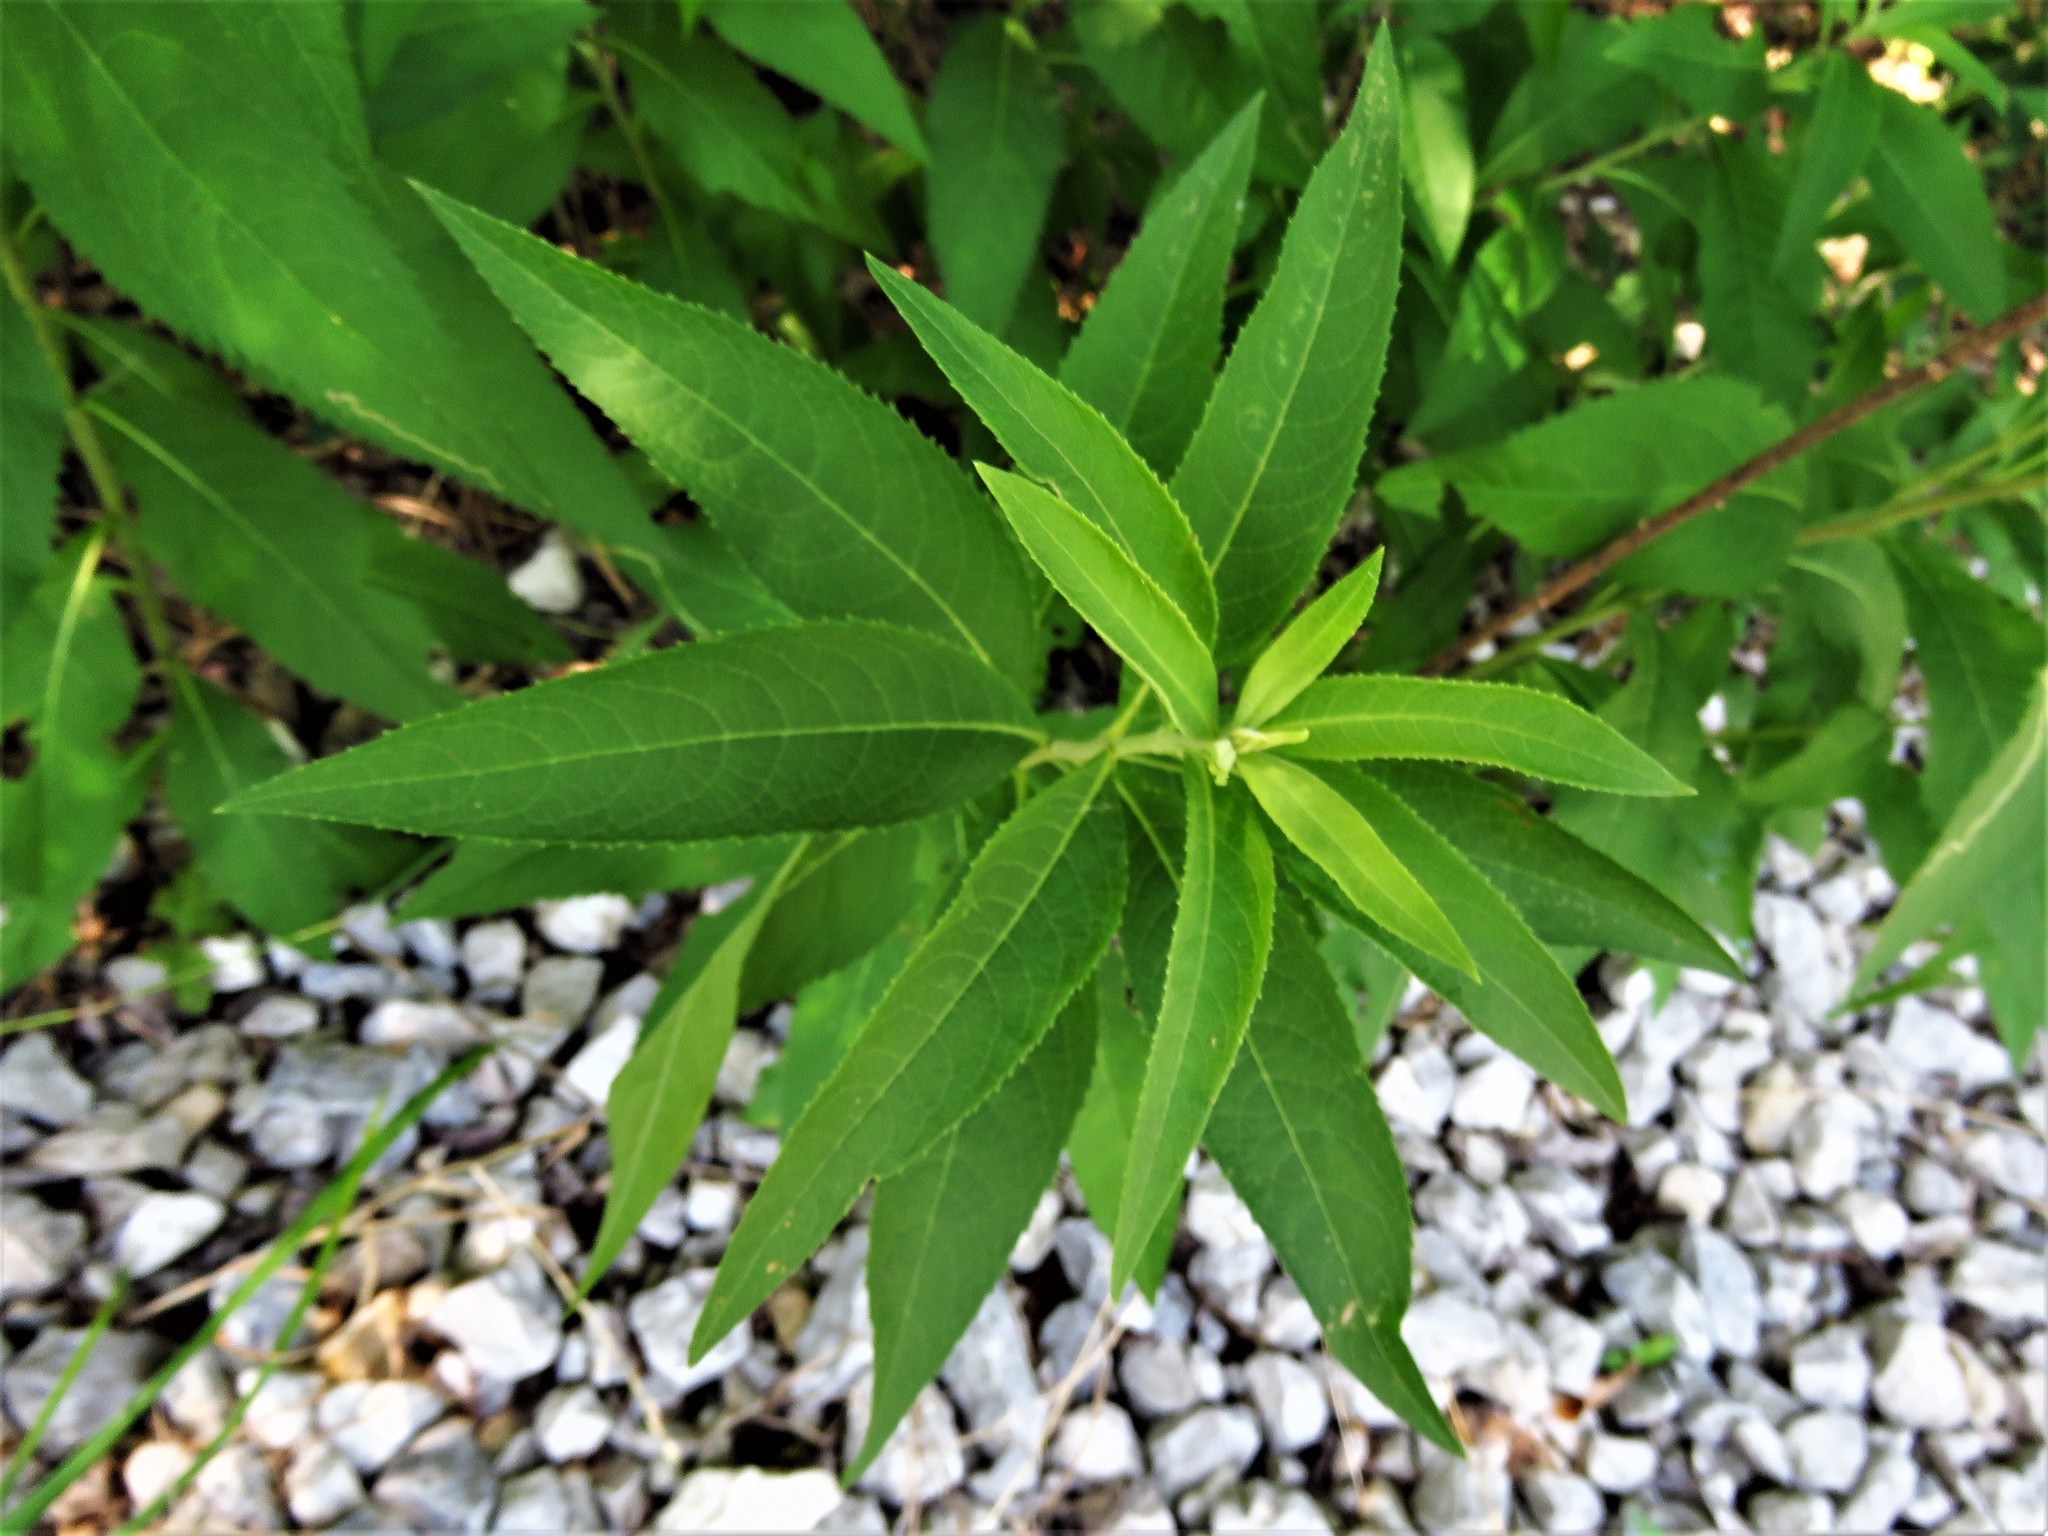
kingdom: Plantae
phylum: Tracheophyta
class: Magnoliopsida
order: Asterales
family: Asteraceae
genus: Vernonia
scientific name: Vernonia baldwinii
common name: Western ironweed
